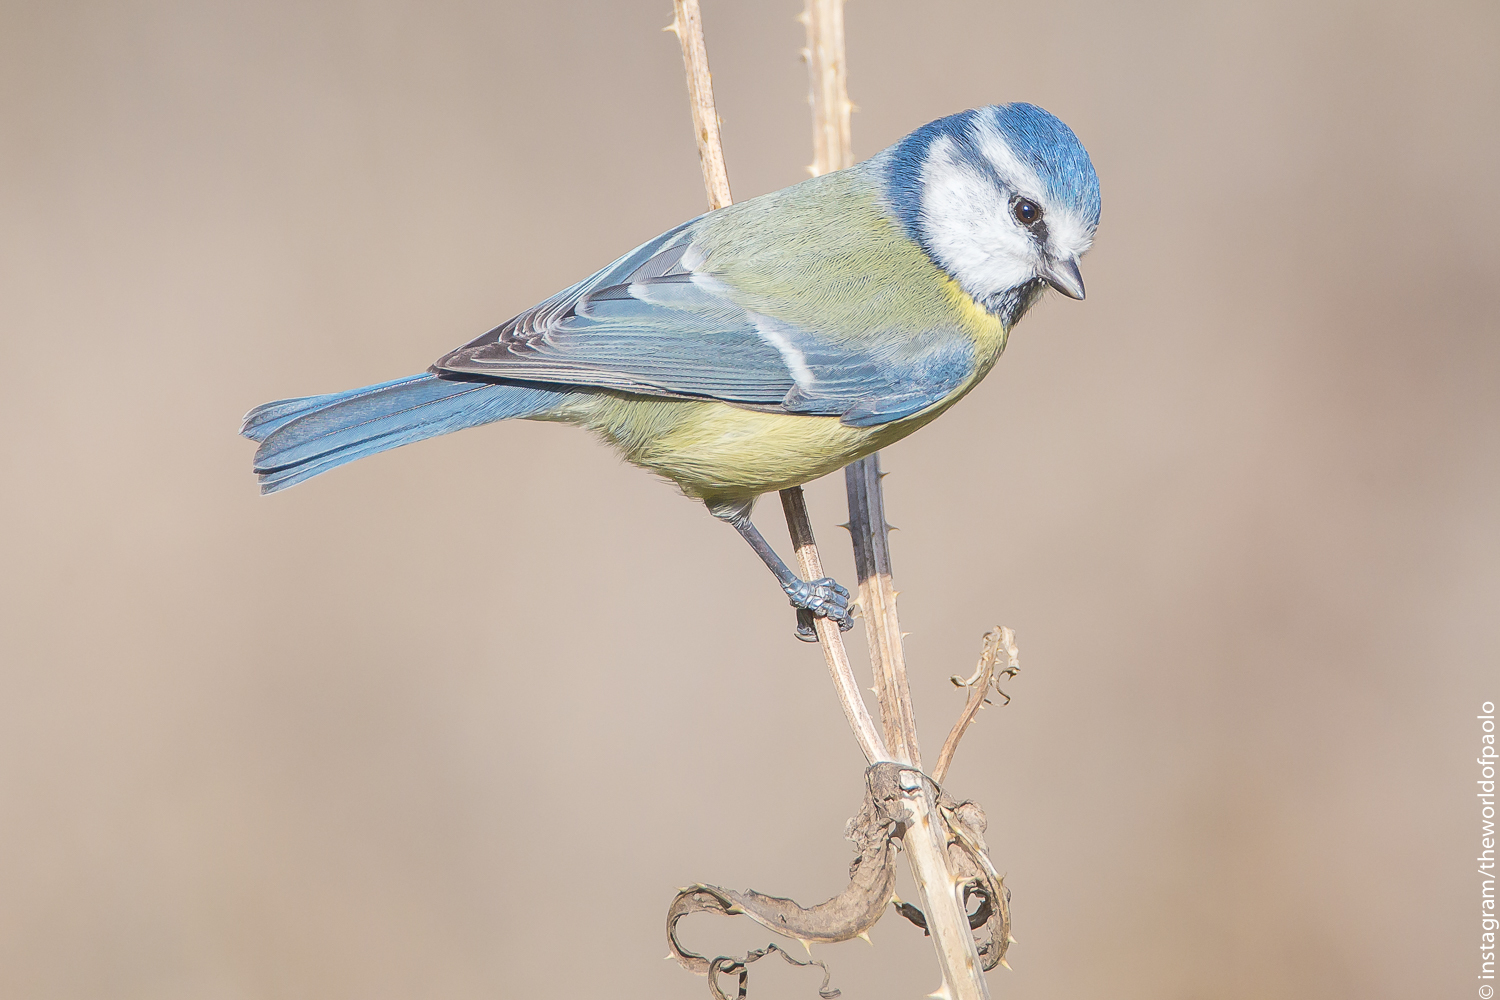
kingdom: Animalia
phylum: Chordata
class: Aves
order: Passeriformes
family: Paridae
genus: Cyanistes
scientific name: Cyanistes caeruleus
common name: Eurasian blue tit
